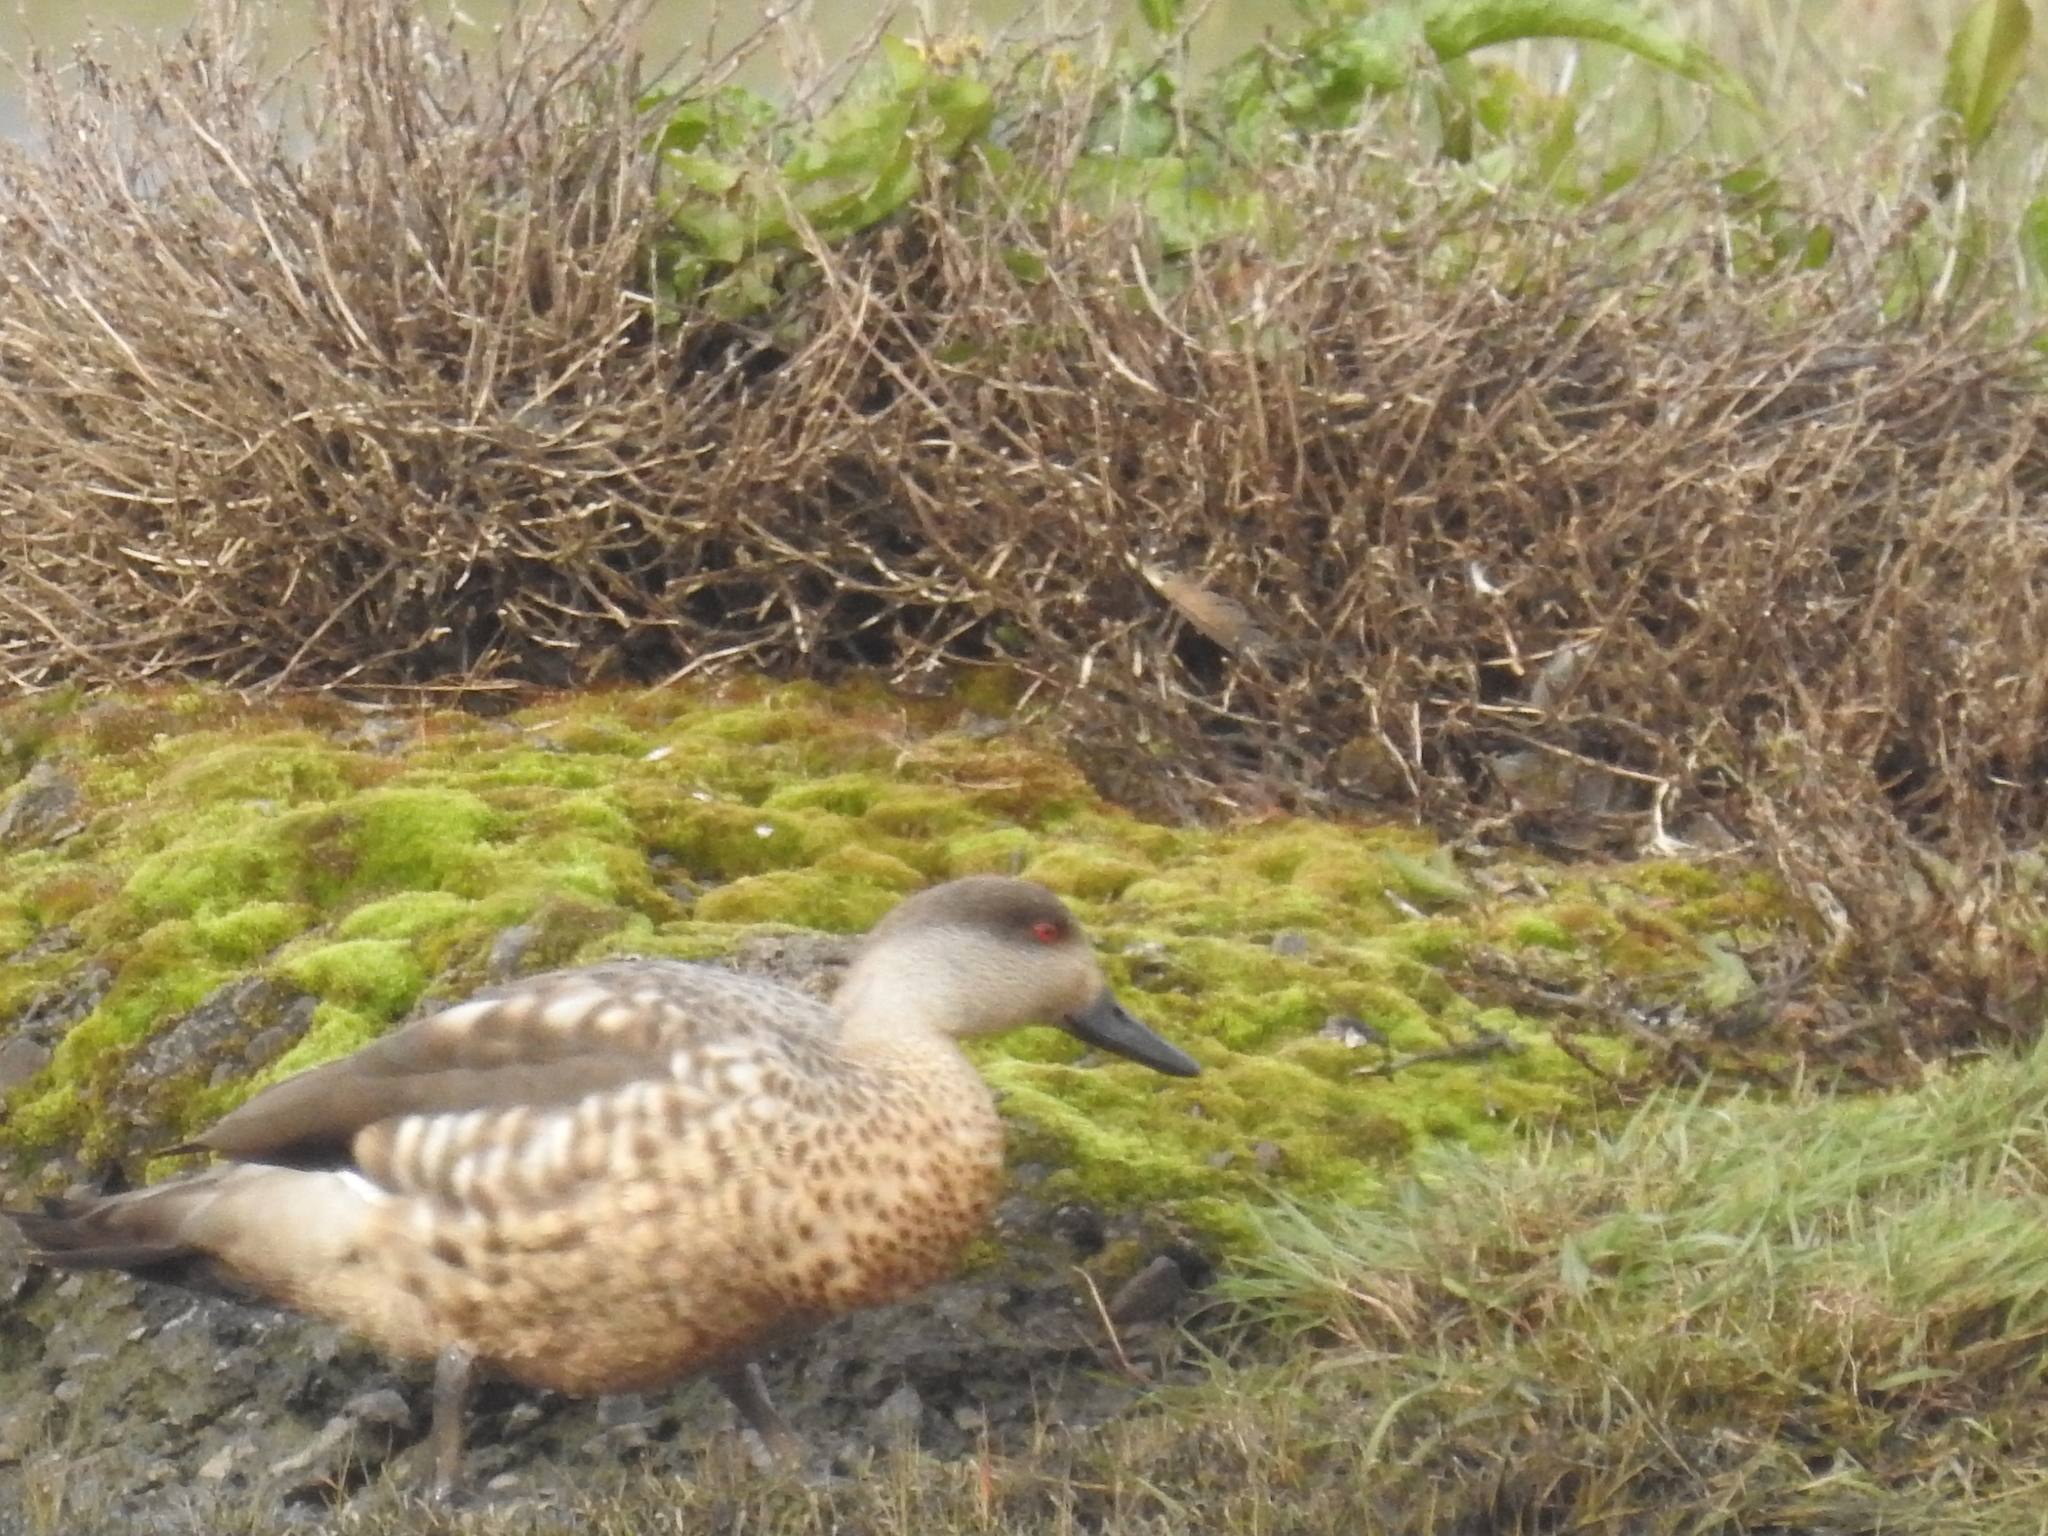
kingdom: Animalia
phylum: Chordata
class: Aves
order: Anseriformes
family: Anatidae
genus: Lophonetta
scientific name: Lophonetta specularioides
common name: Crested duck
